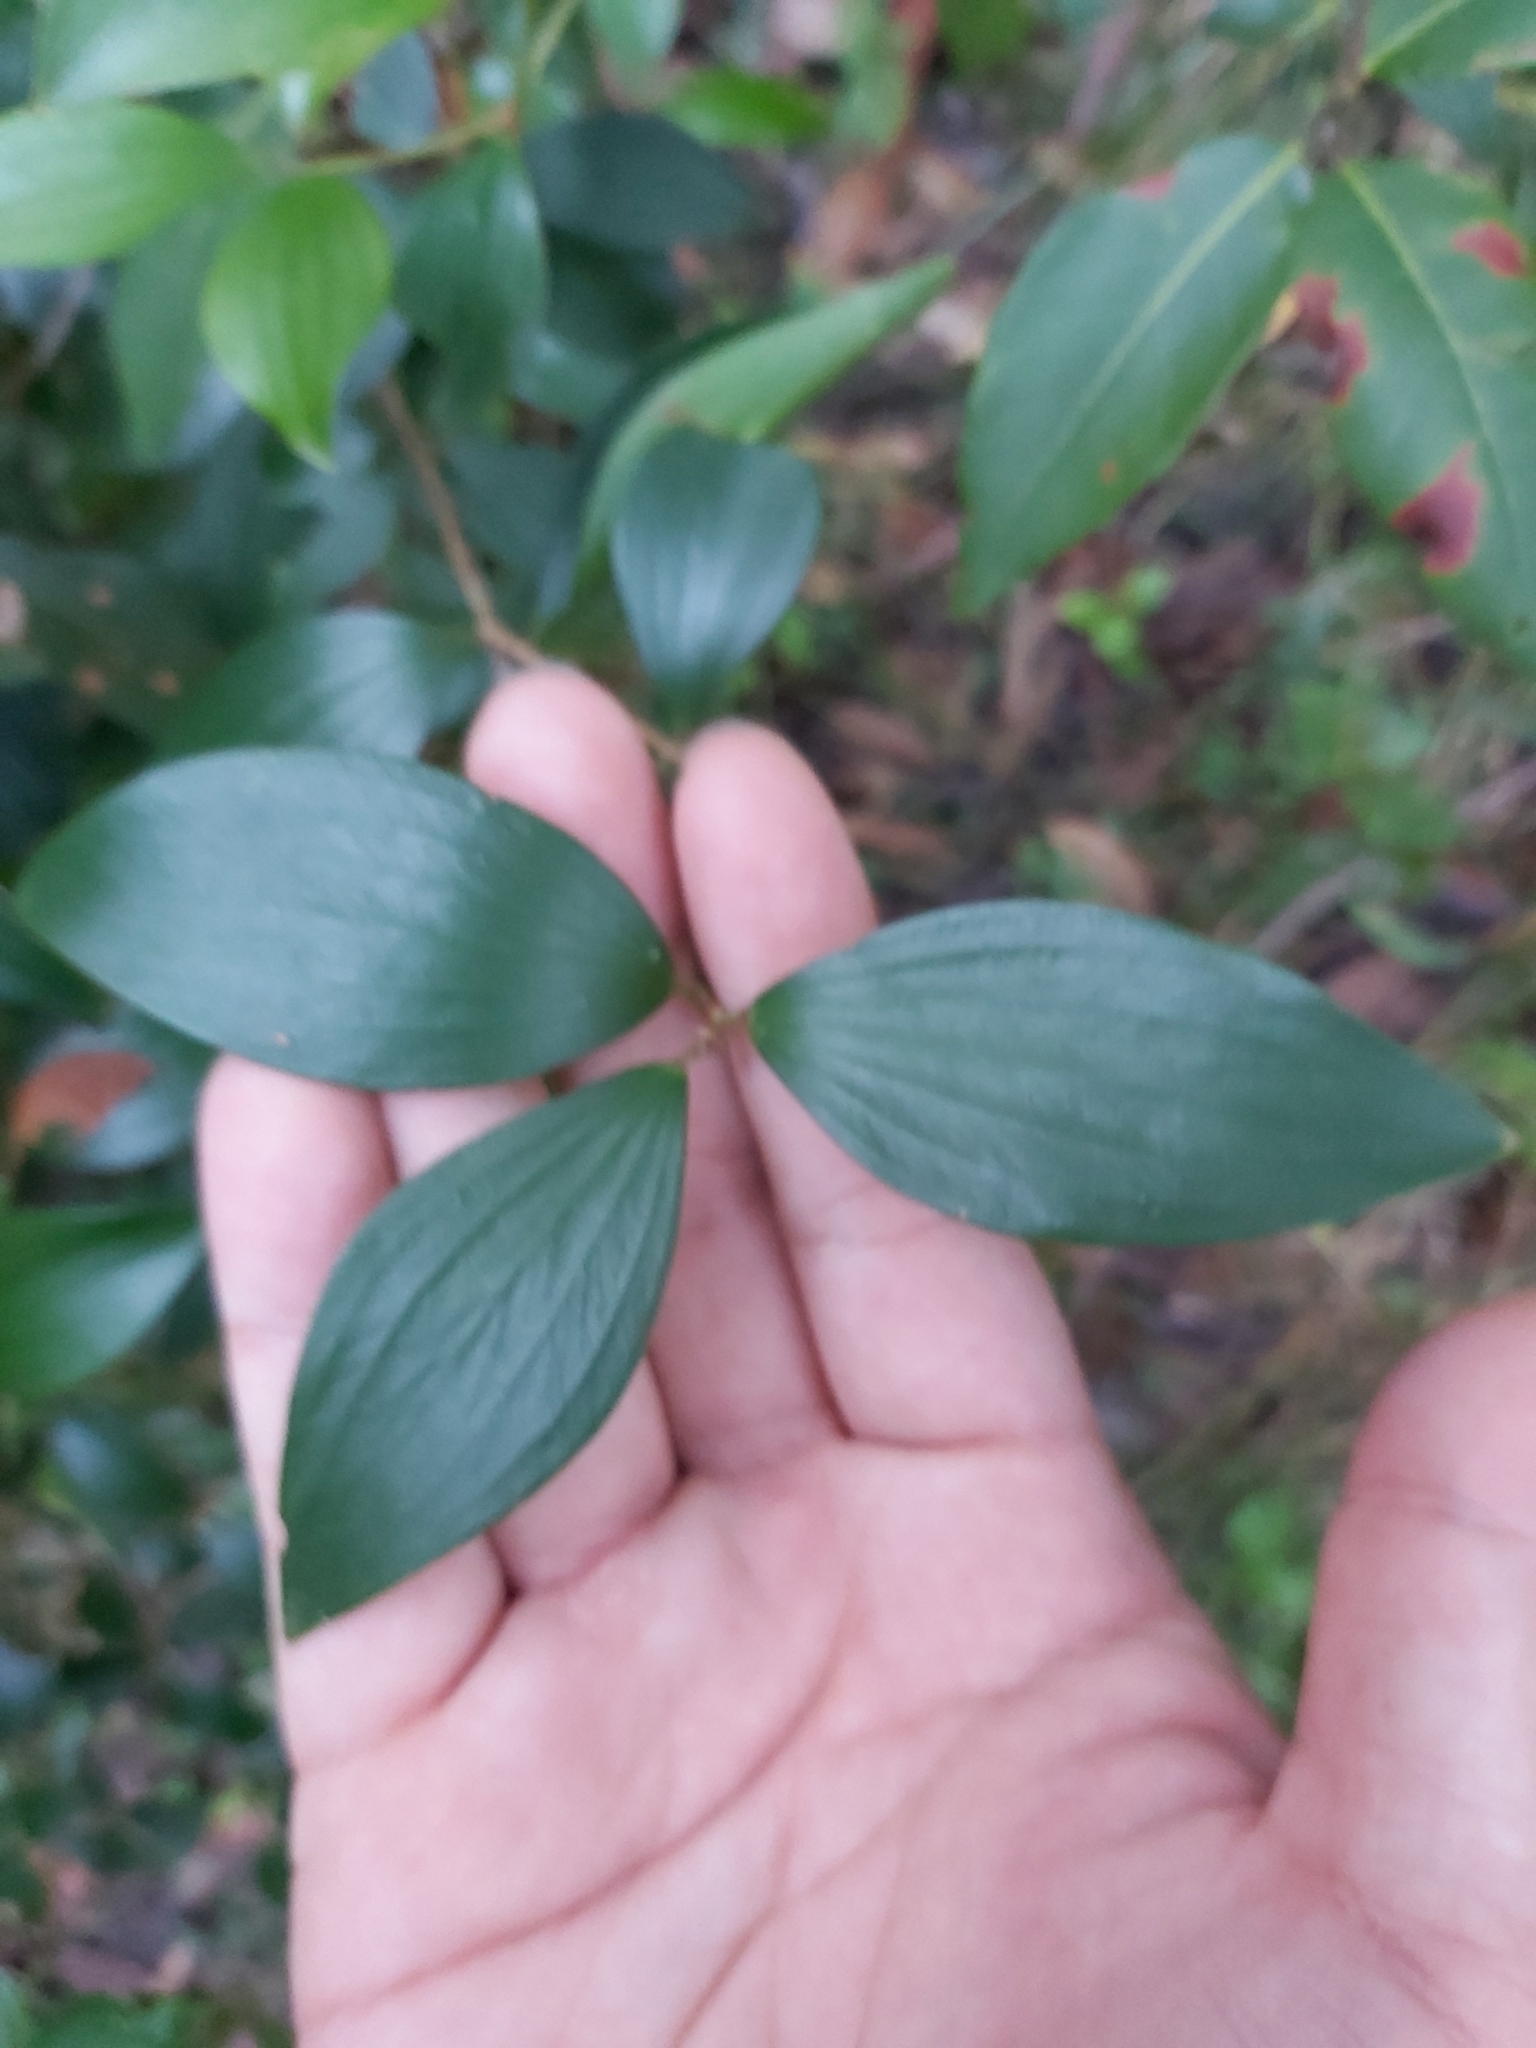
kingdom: Plantae
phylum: Tracheophyta
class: Magnoliopsida
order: Ericales
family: Ericaceae
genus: Trochocarpa
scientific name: Trochocarpa laurina
